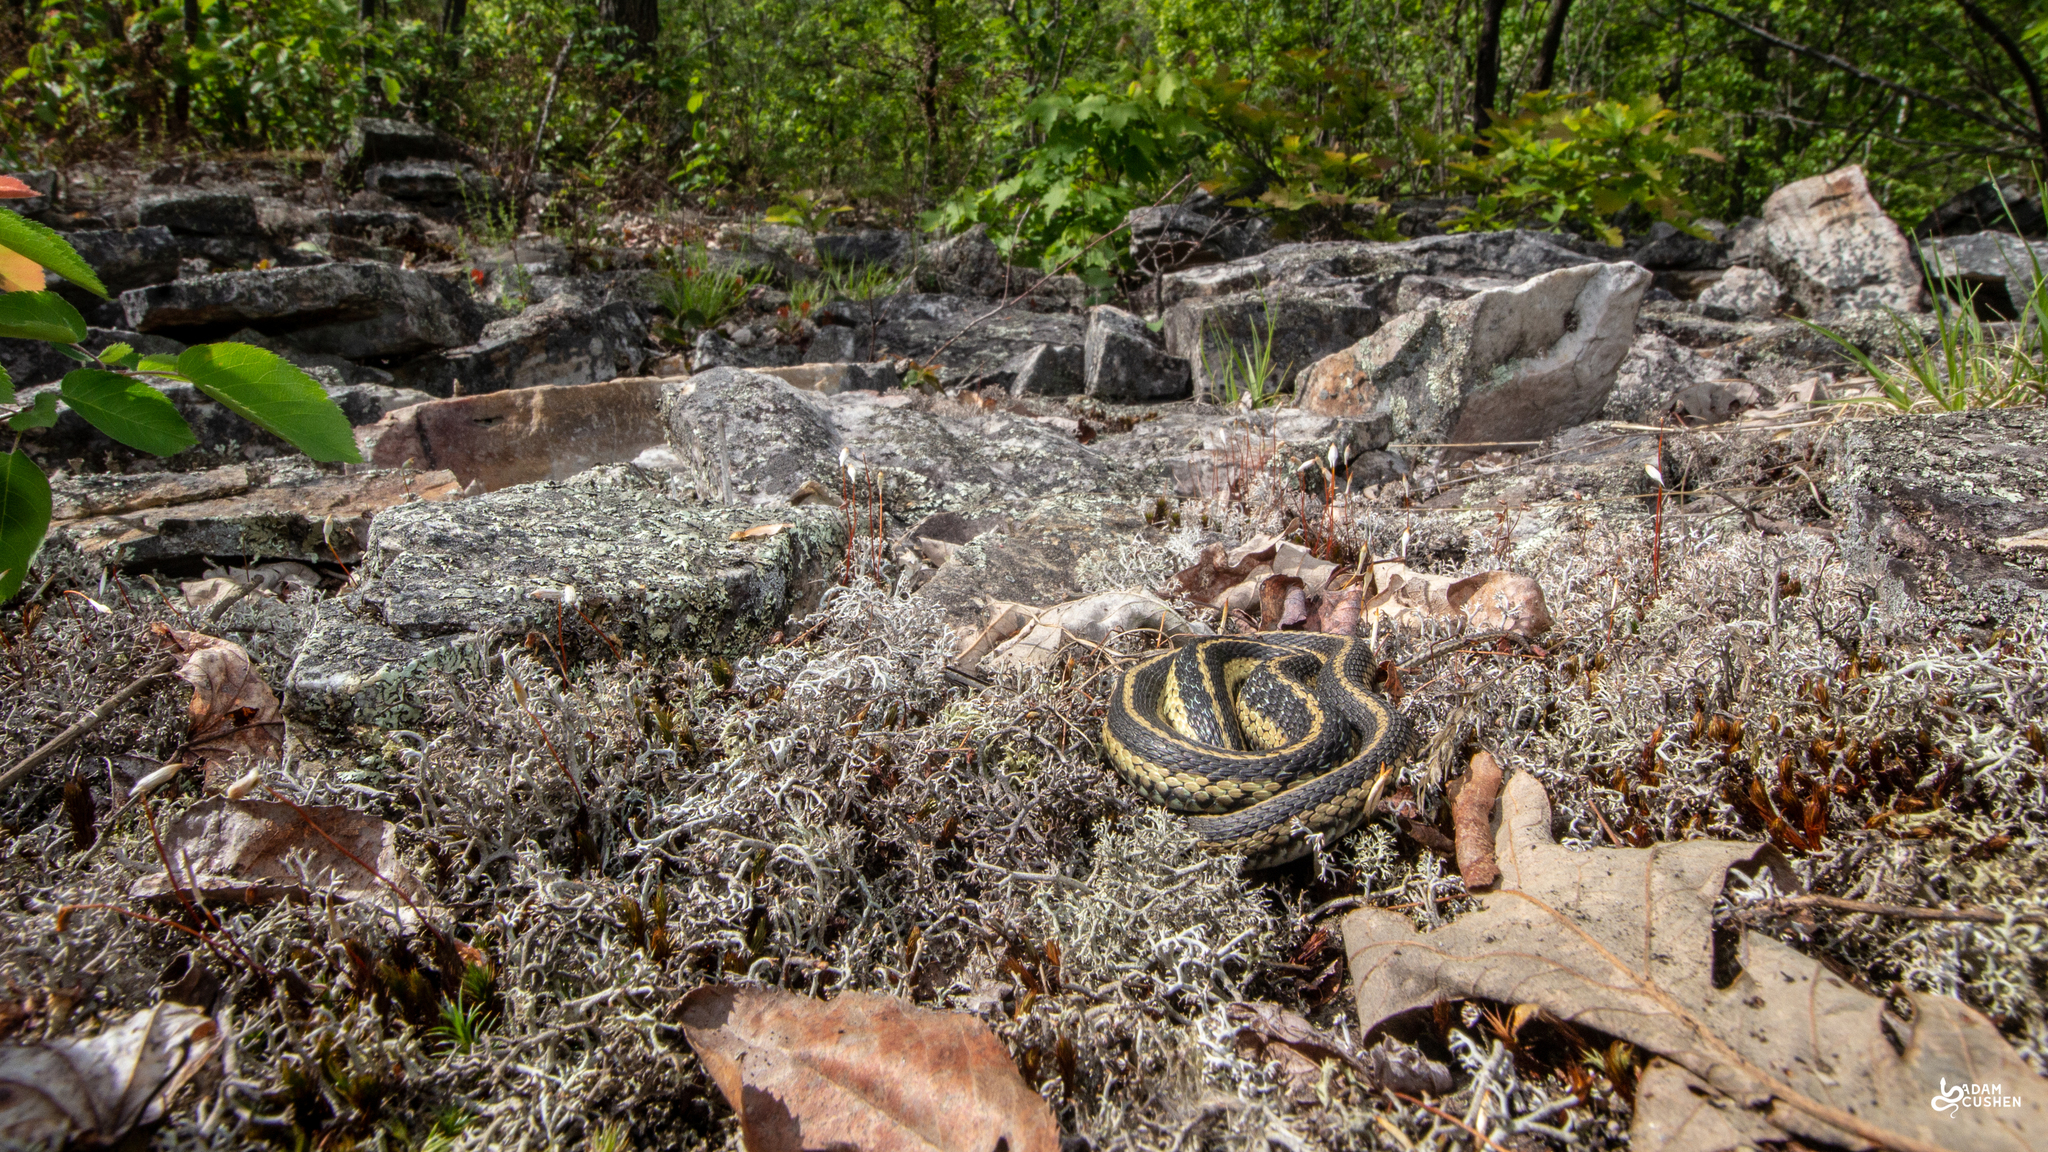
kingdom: Animalia
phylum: Chordata
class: Squamata
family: Colubridae
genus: Thamnophis
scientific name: Thamnophis sirtalis
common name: Common garter snake
